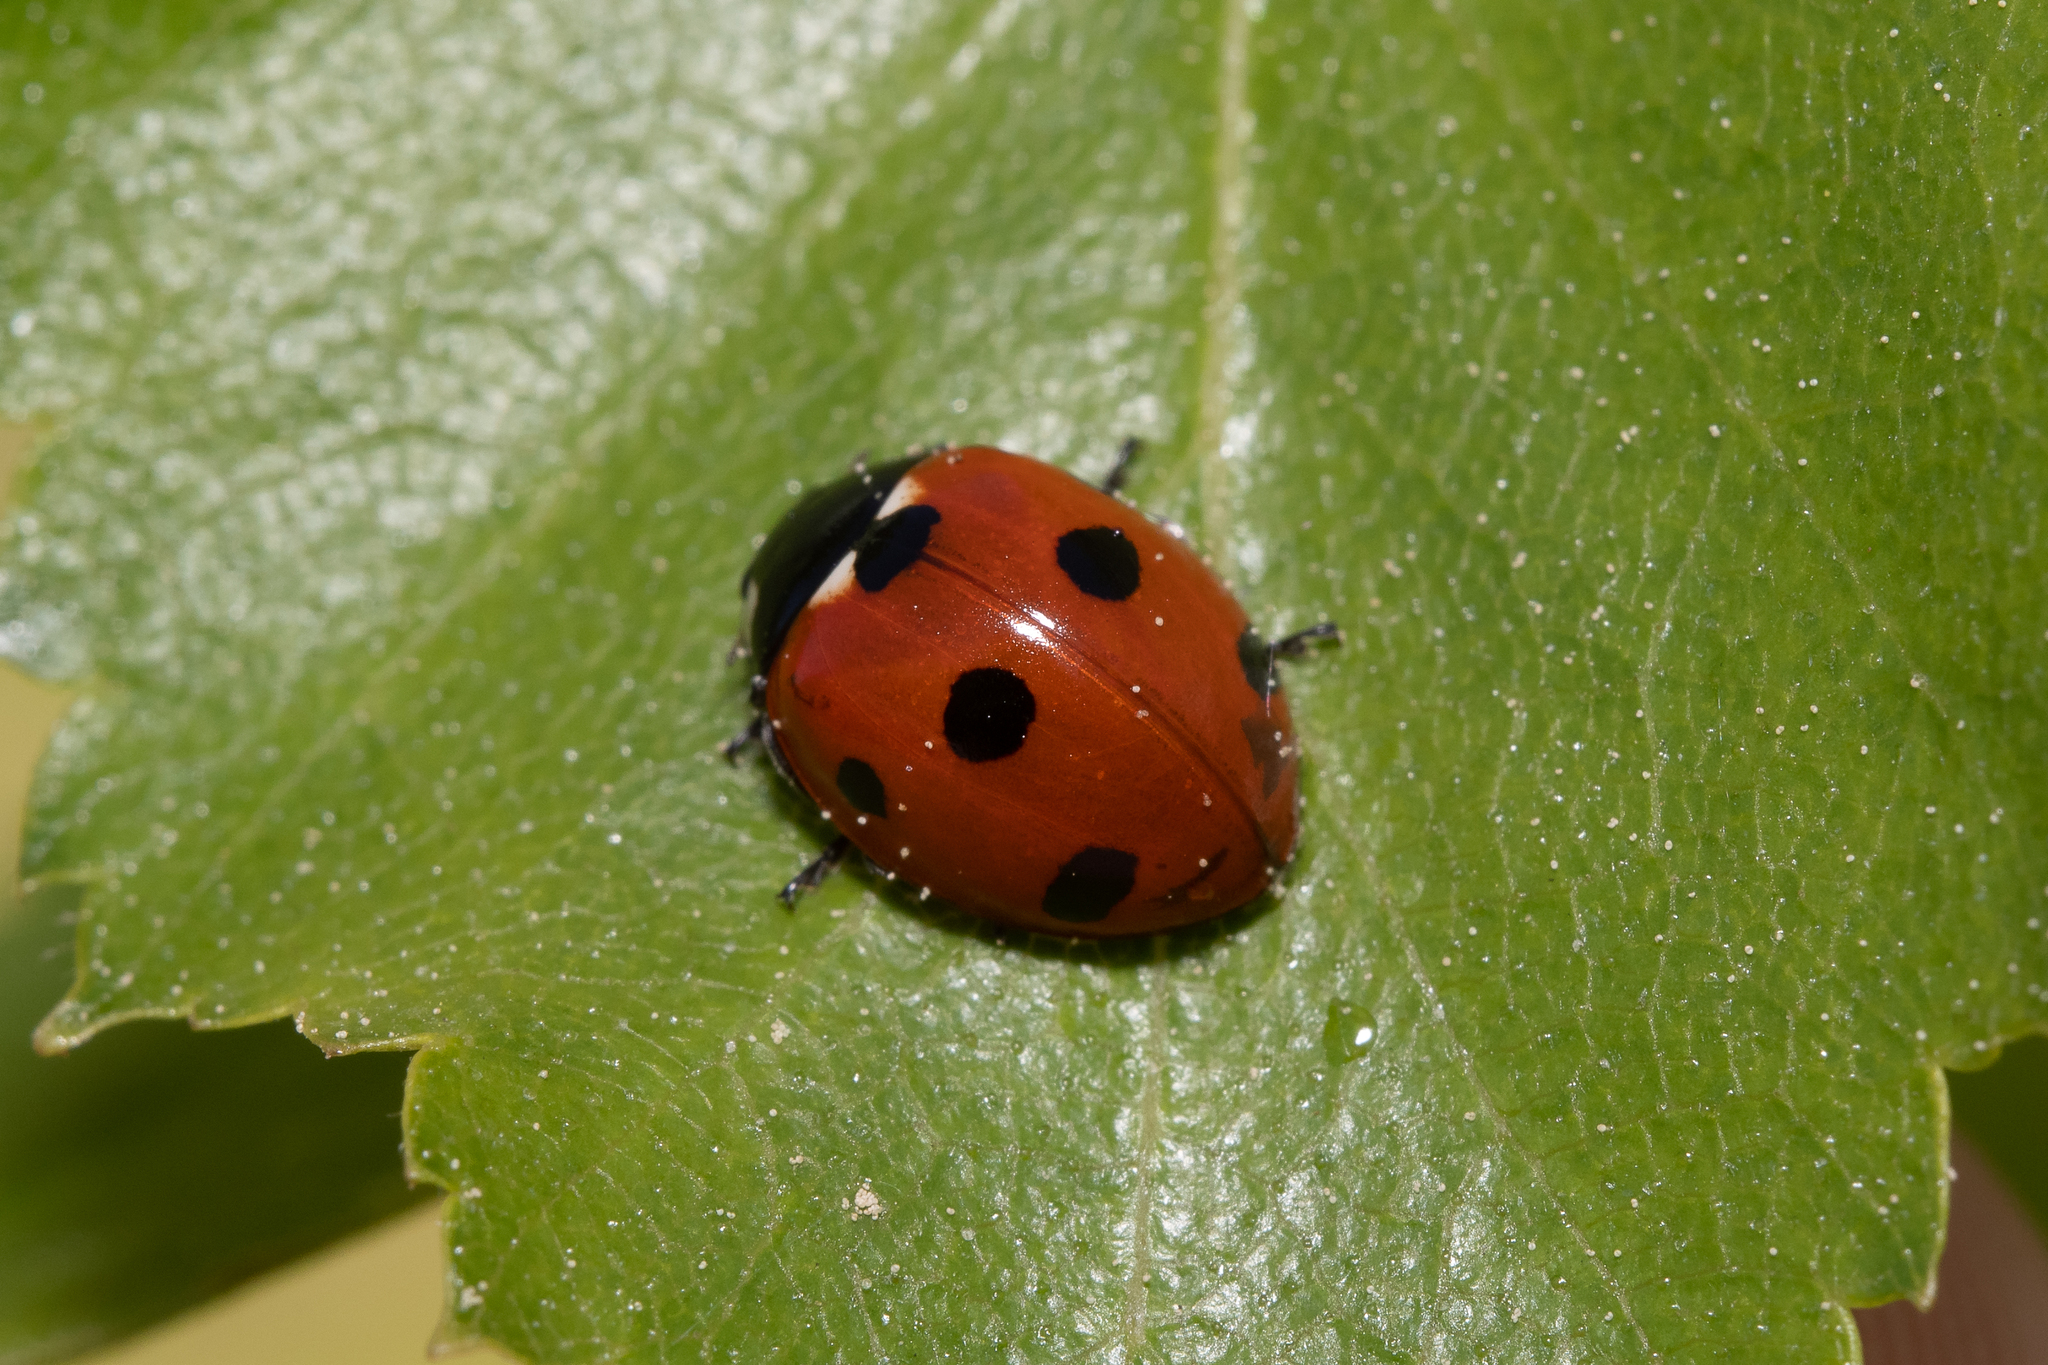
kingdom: Animalia
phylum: Arthropoda
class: Insecta
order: Coleoptera
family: Coccinellidae
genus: Coccinella
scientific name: Coccinella septempunctata
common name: Sevenspotted lady beetle
